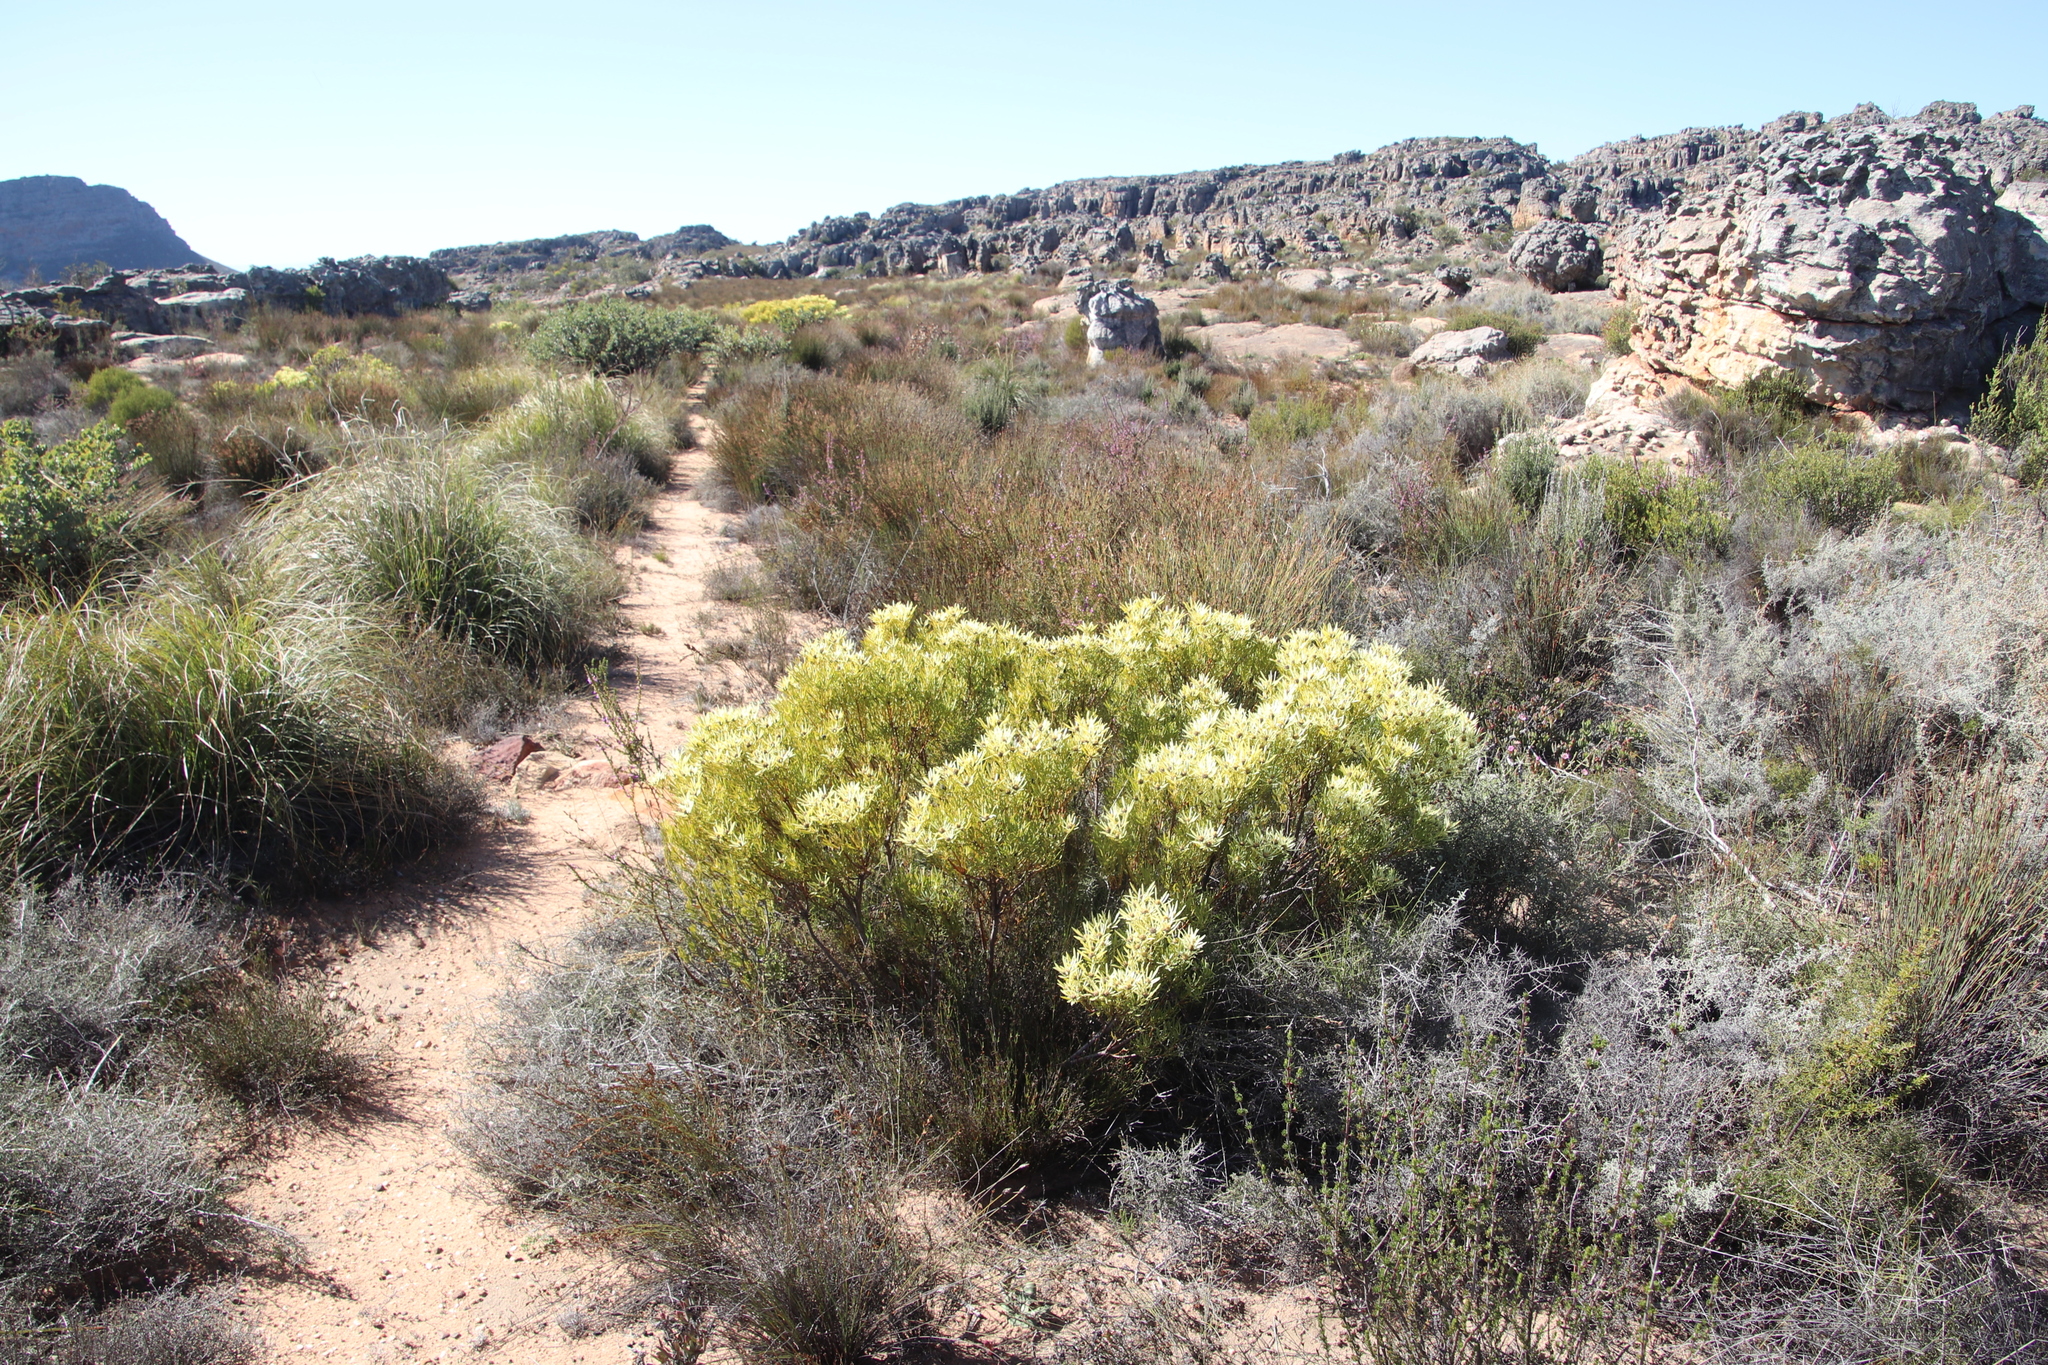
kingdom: Plantae
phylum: Tracheophyta
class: Magnoliopsida
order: Proteales
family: Proteaceae
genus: Leucadendron
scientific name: Leucadendron salignum
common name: Common sunshine conebush
